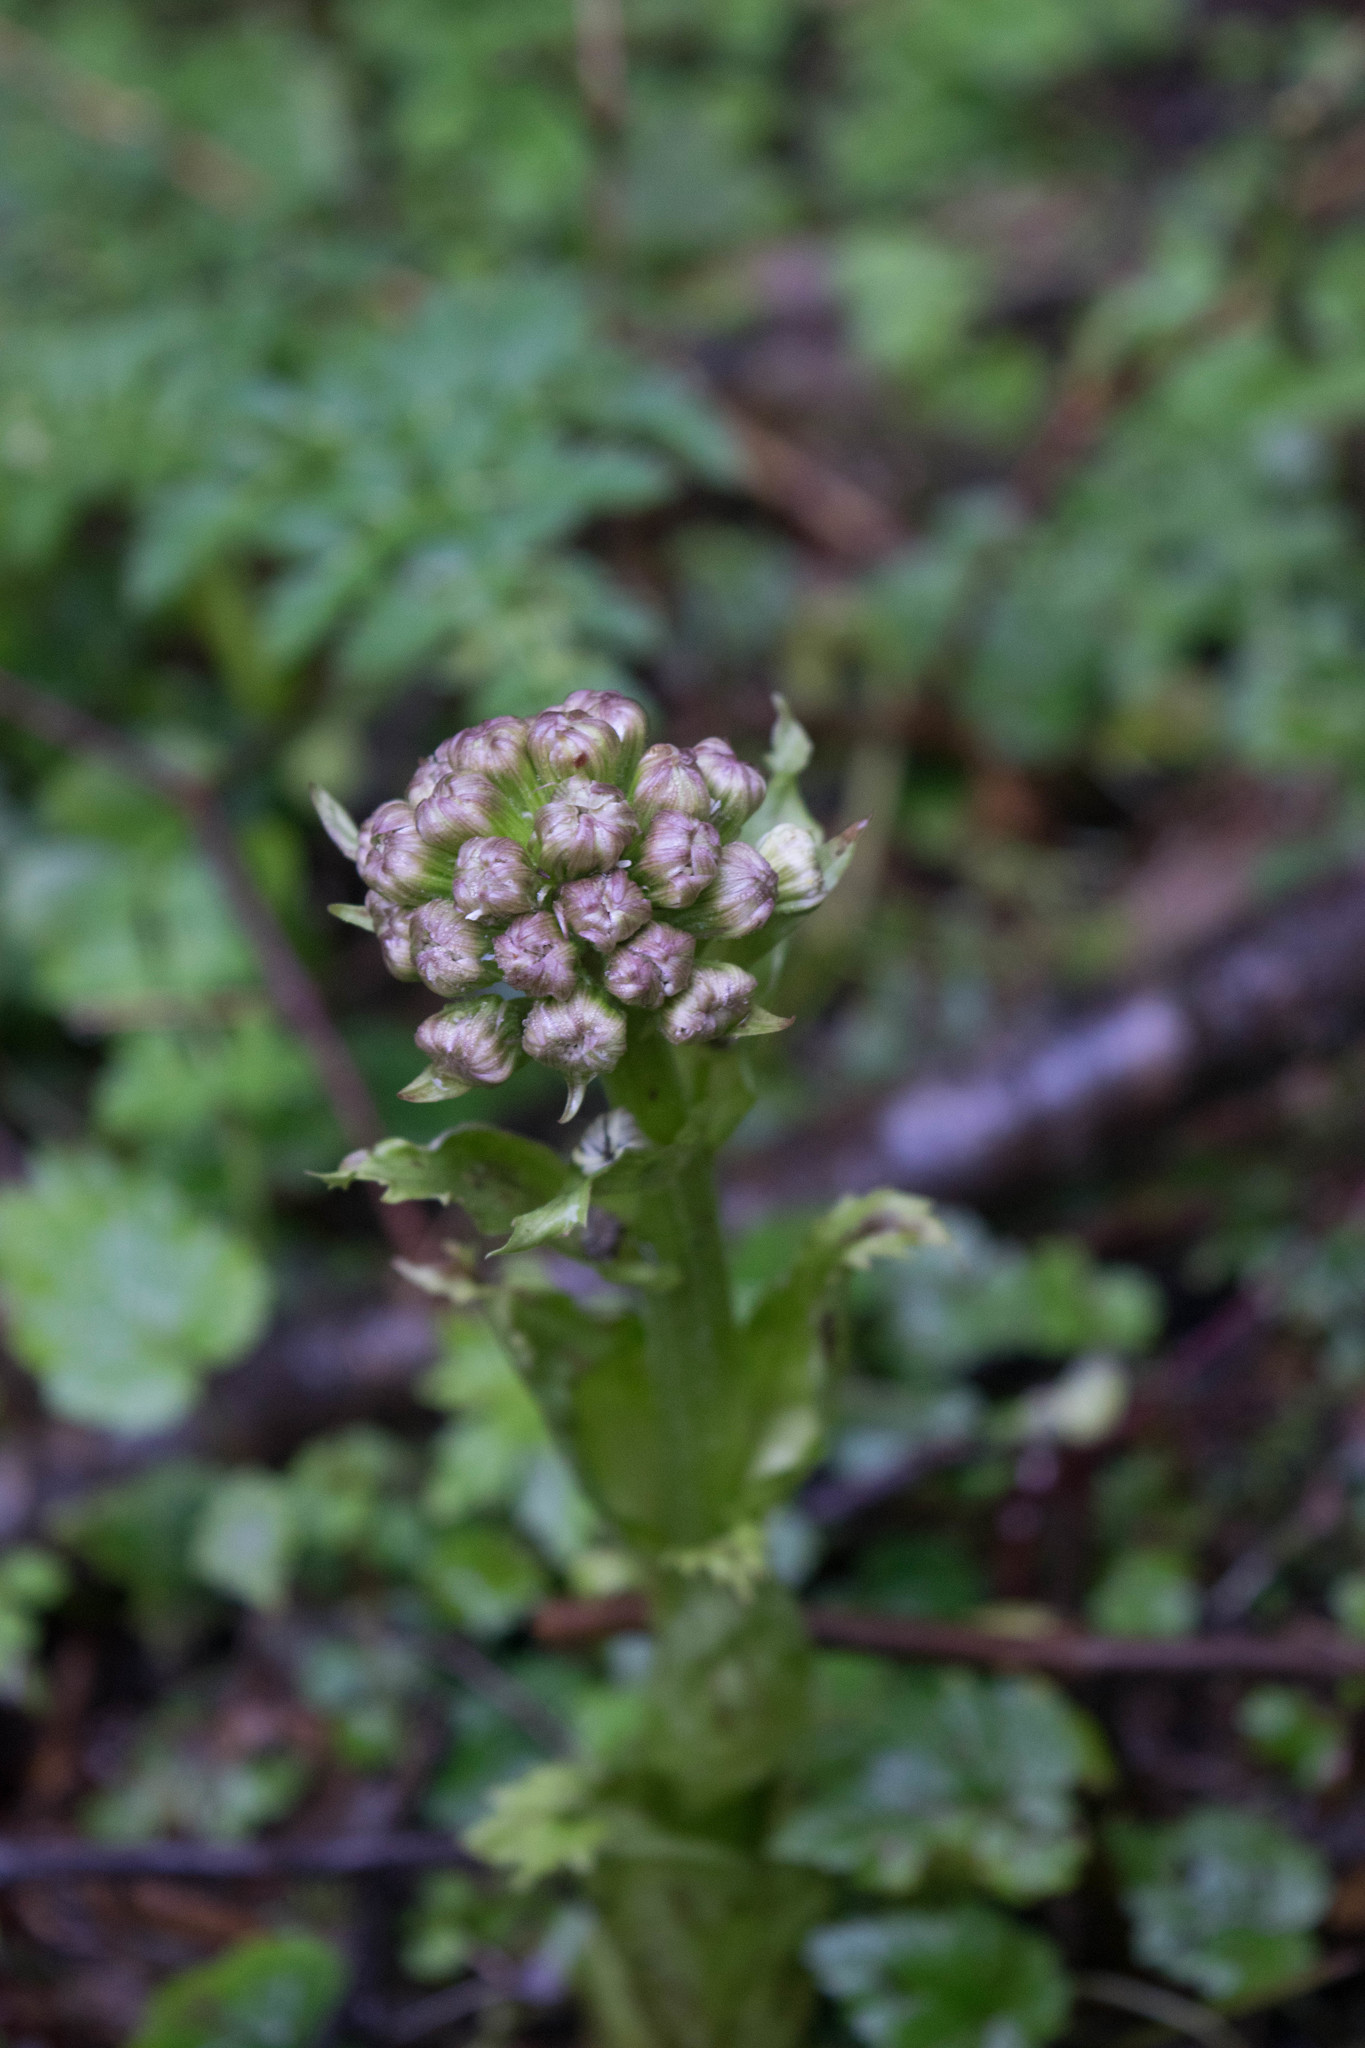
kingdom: Plantae
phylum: Tracheophyta
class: Magnoliopsida
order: Asterales
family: Asteraceae
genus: Petasites
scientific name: Petasites frigidus
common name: Arctic butterbur
